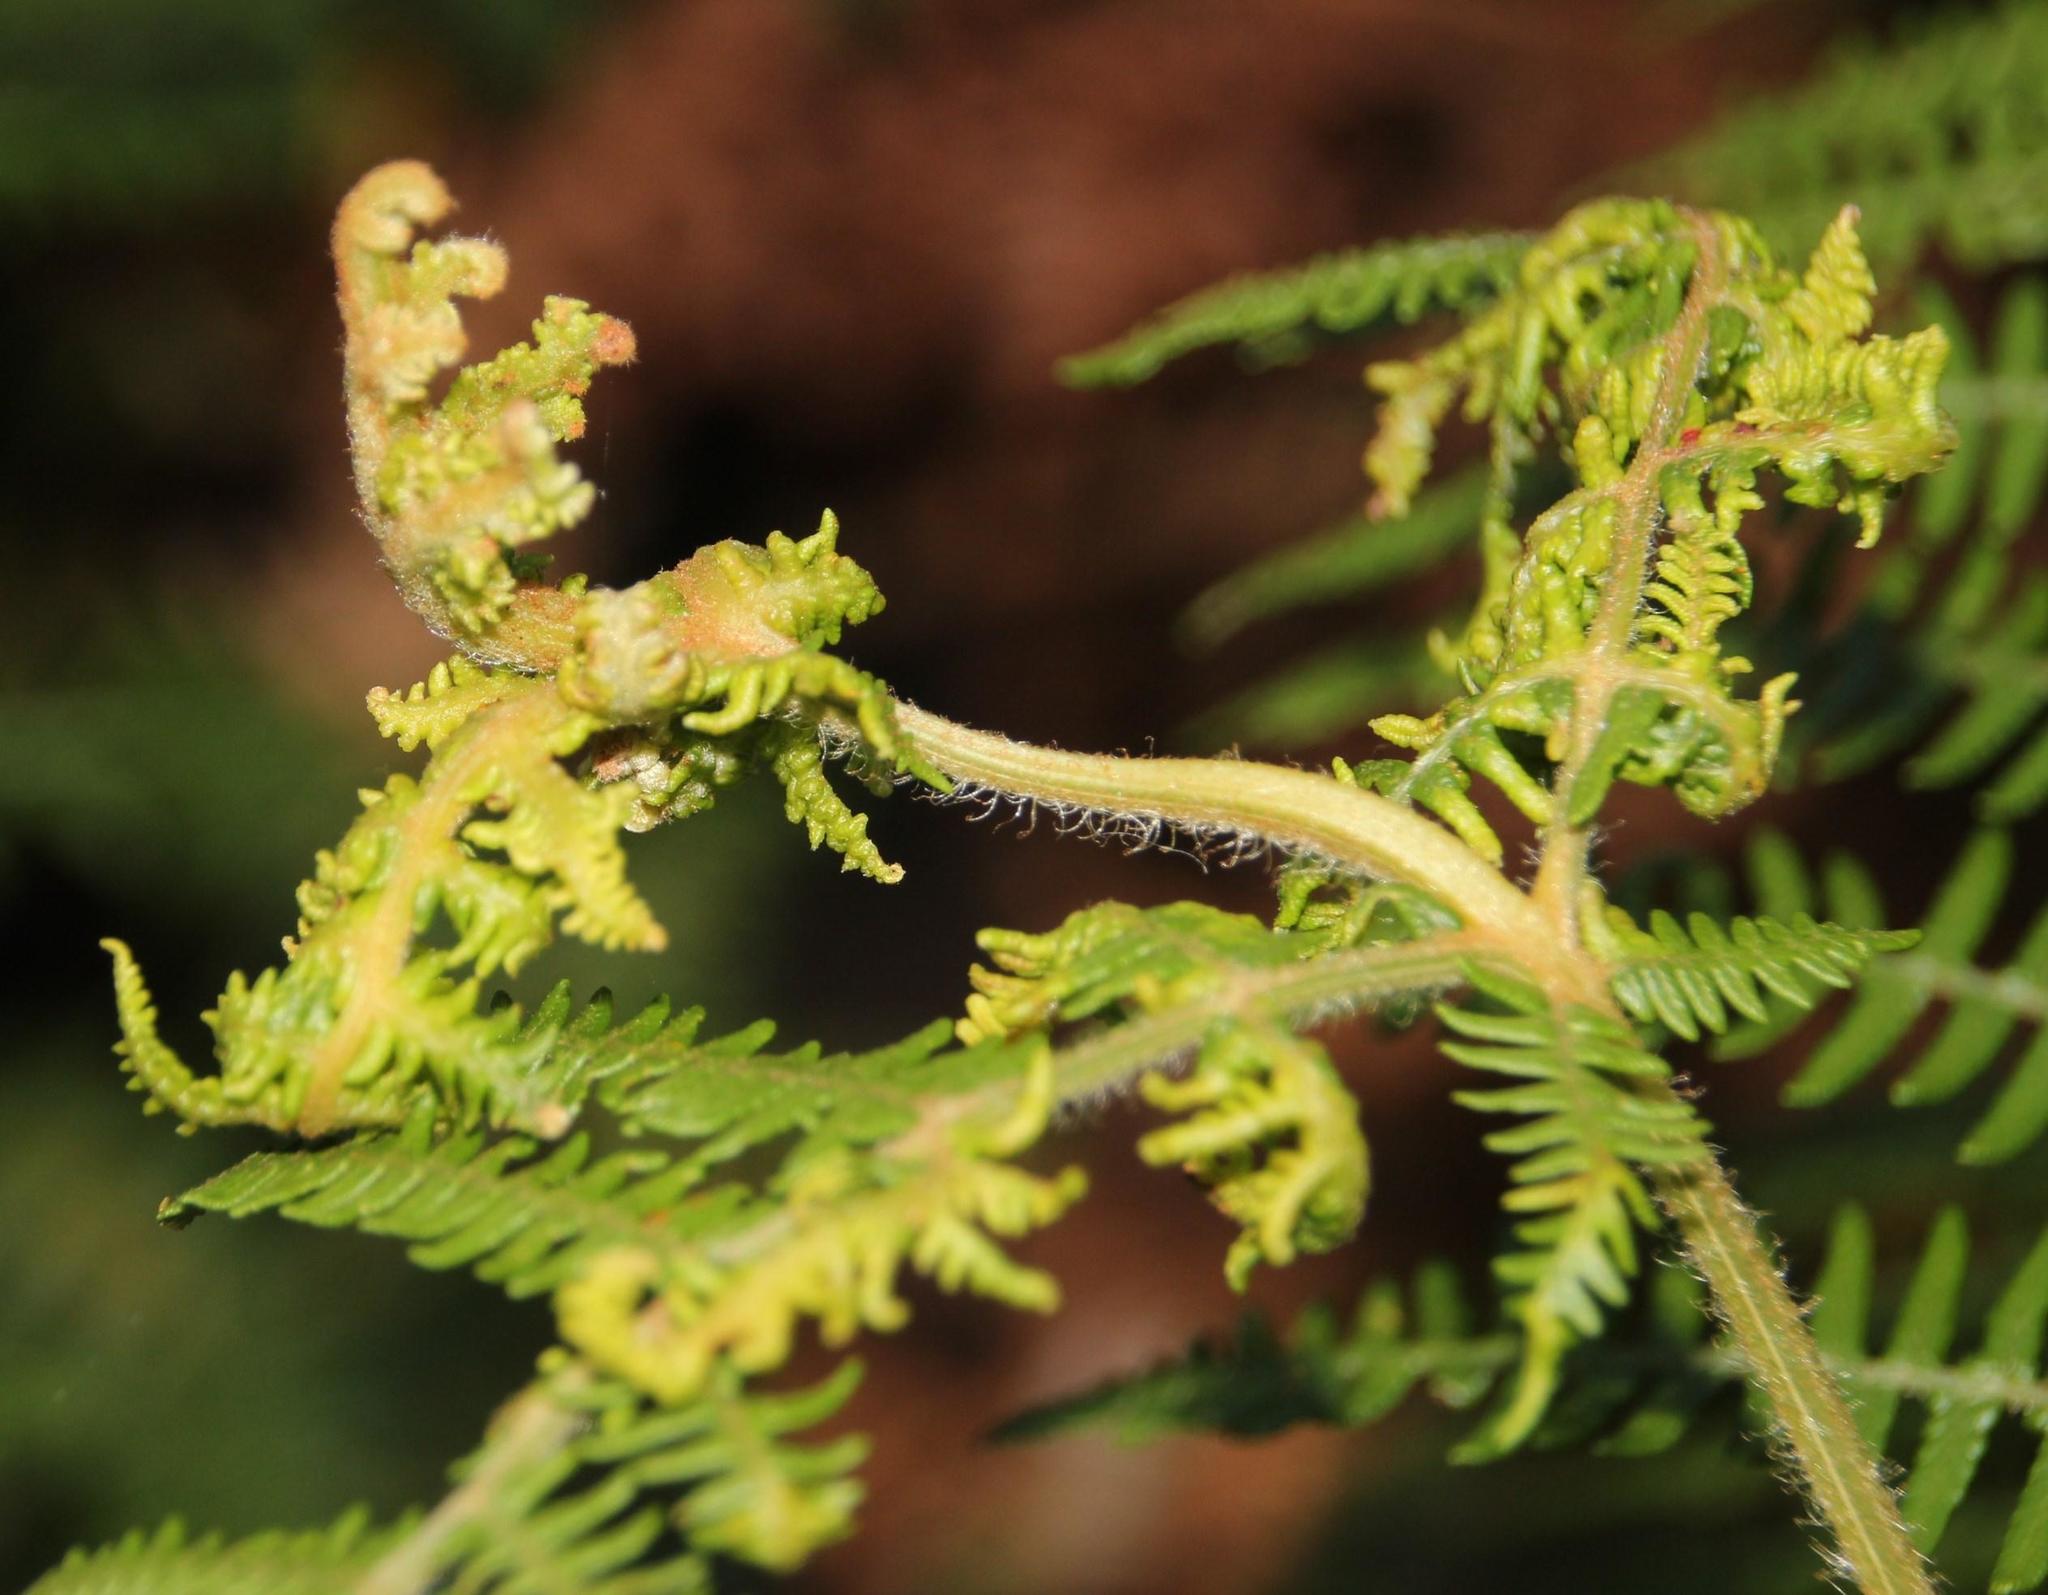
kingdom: Plantae
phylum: Tracheophyta
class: Polypodiopsida
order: Polypodiales
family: Dennstaedtiaceae
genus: Pteridium
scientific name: Pteridium aquilinum
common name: Bracken
